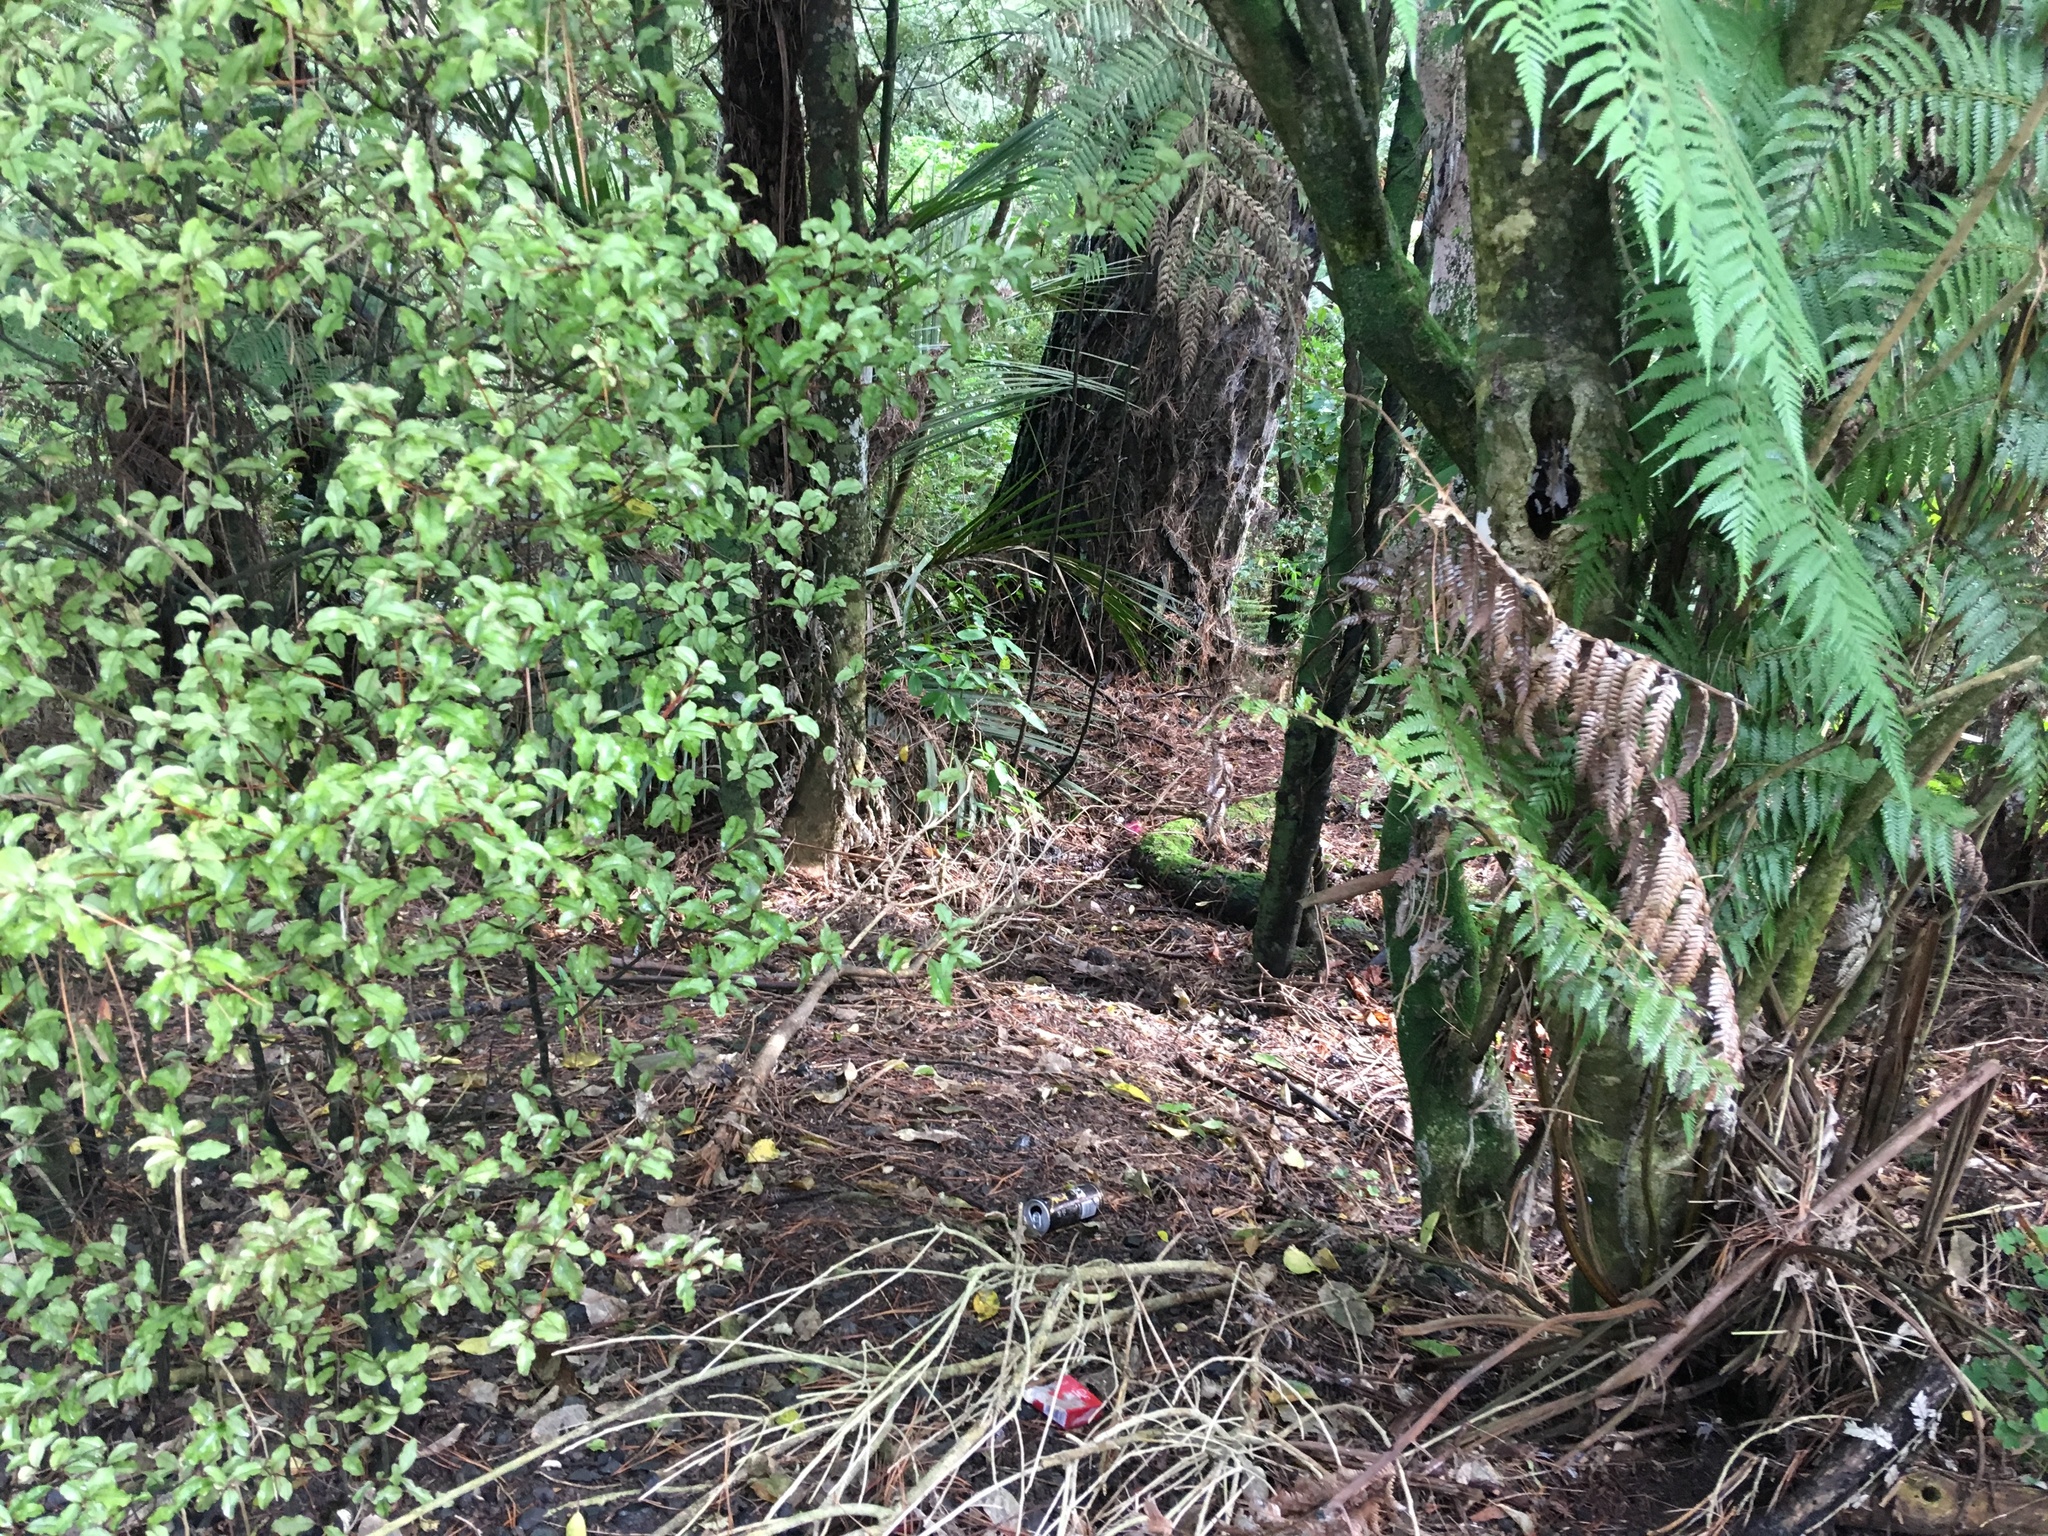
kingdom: Plantae
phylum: Tracheophyta
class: Magnoliopsida
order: Ericales
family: Primulaceae
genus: Myrsine
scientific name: Myrsine australis
